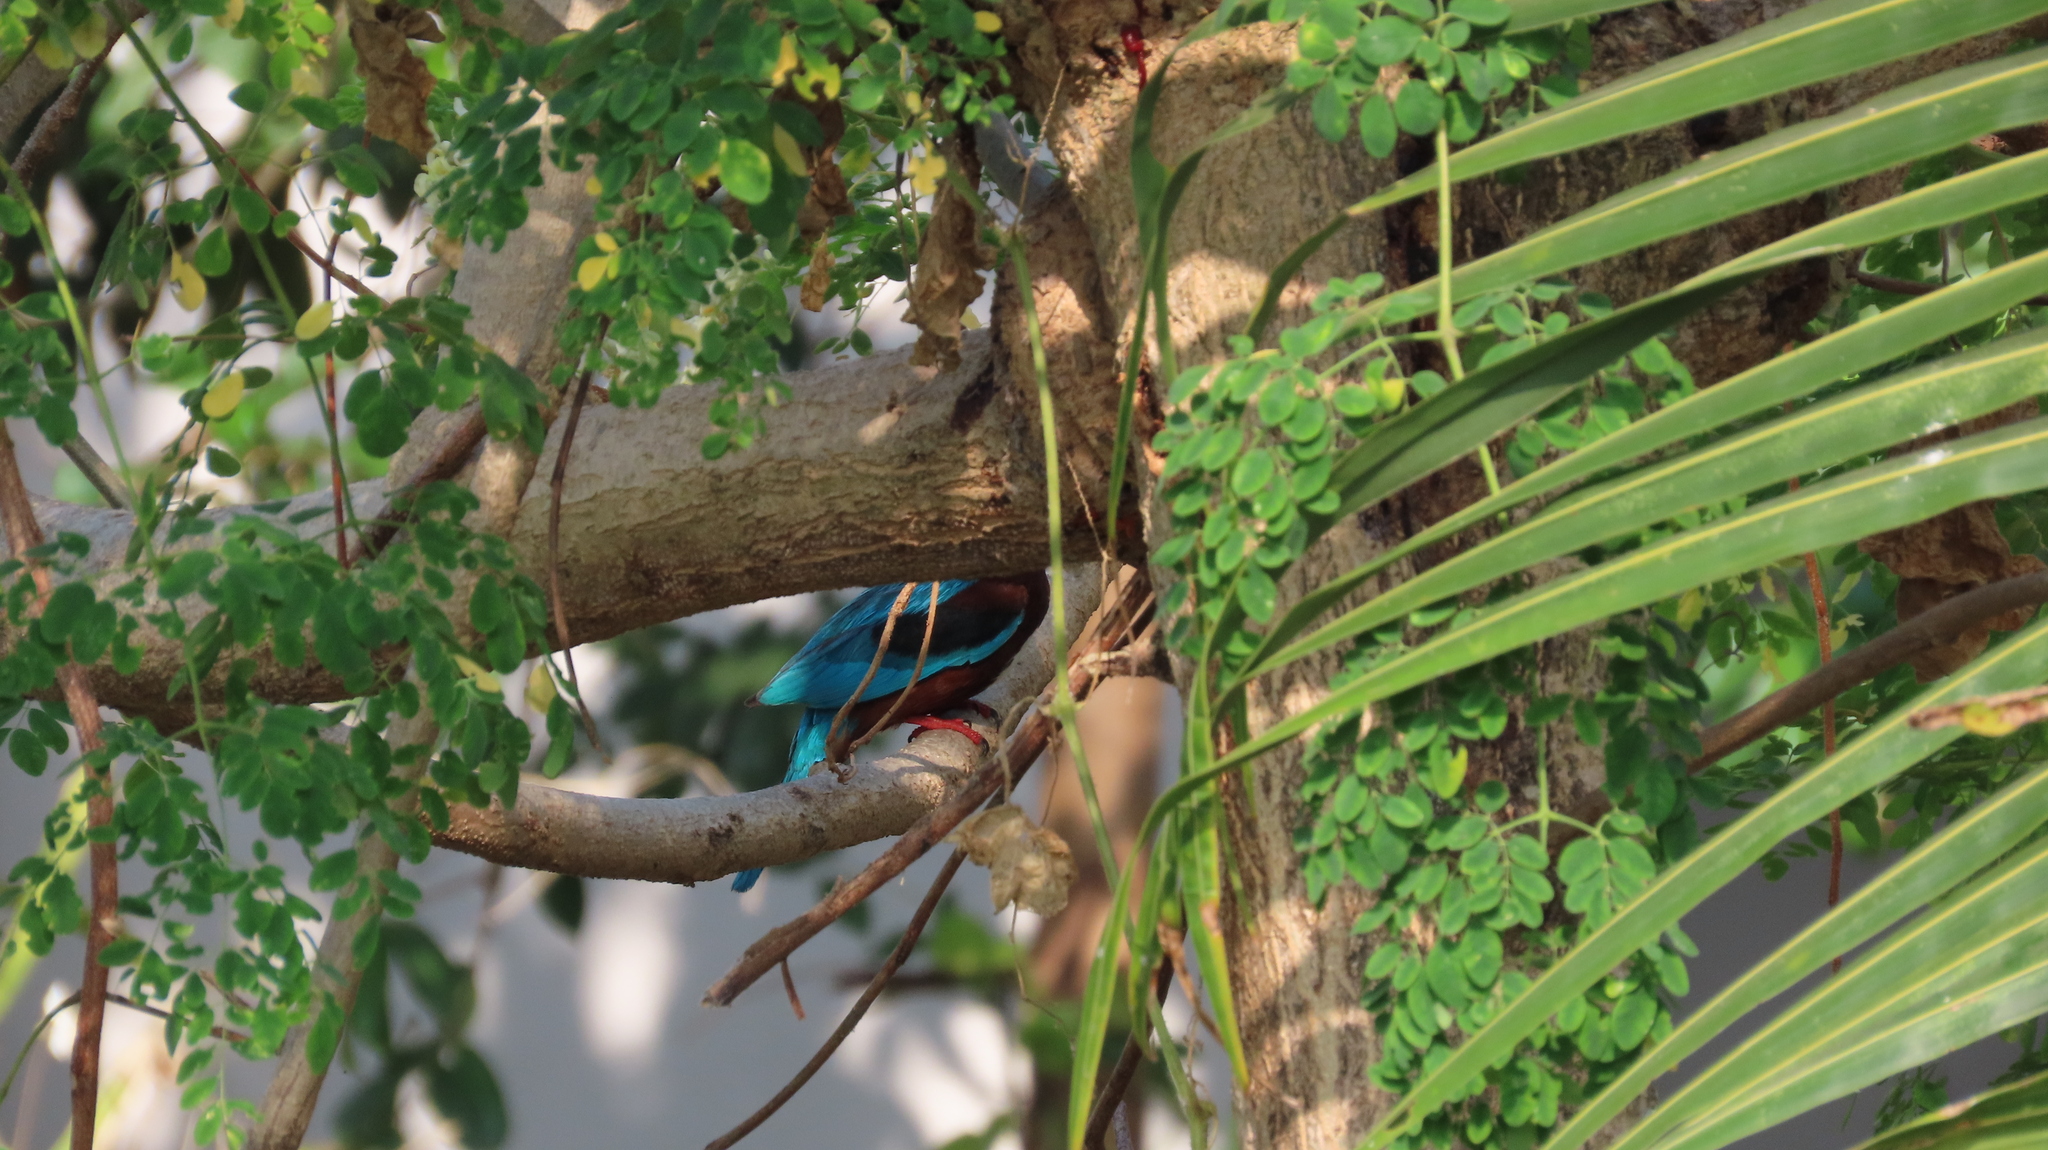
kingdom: Animalia
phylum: Chordata
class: Aves
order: Coraciiformes
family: Alcedinidae
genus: Halcyon
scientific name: Halcyon smyrnensis
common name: White-throated kingfisher
